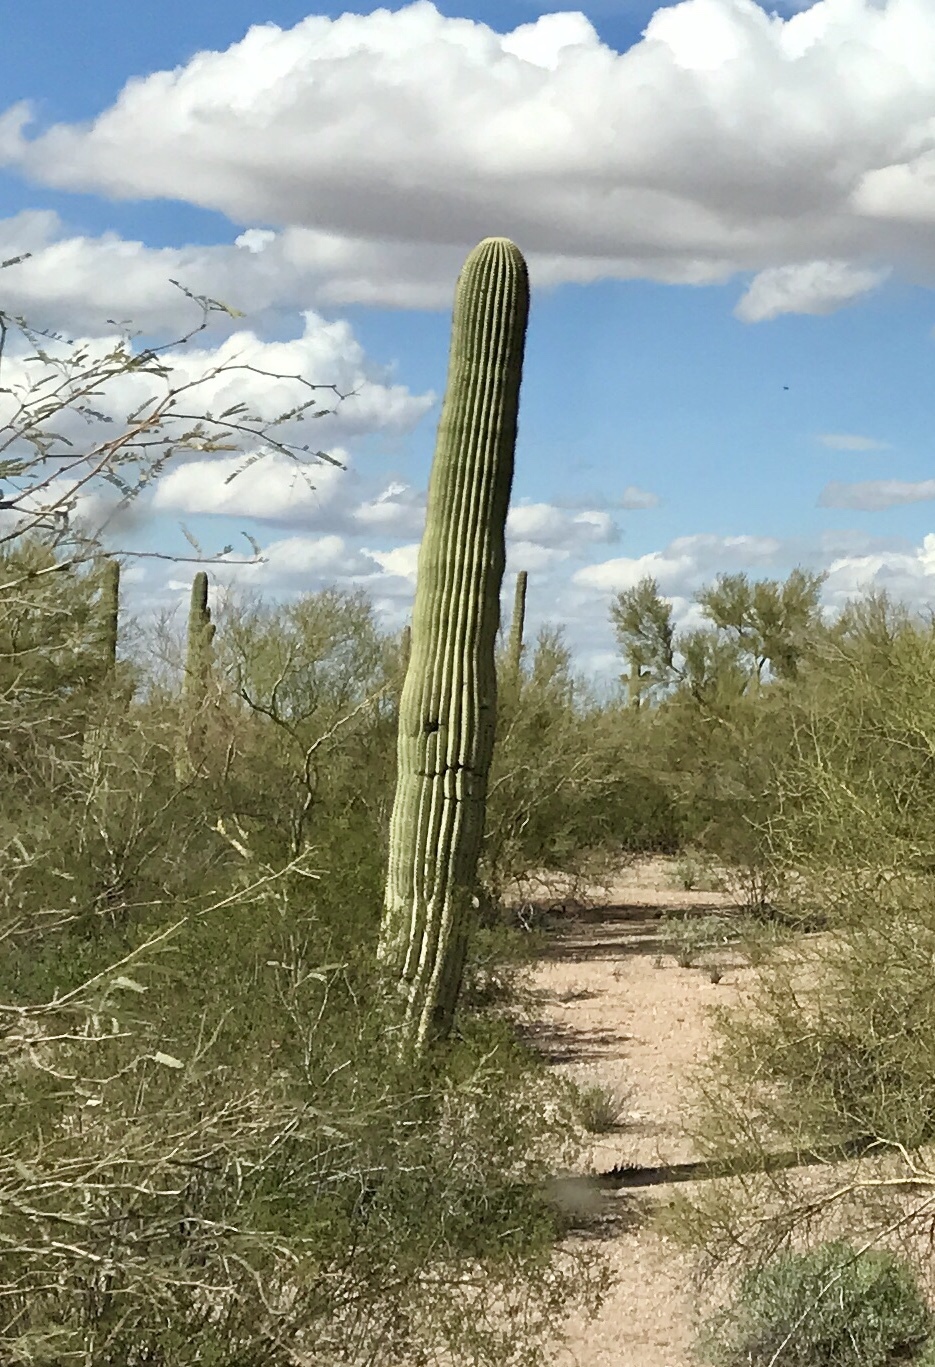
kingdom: Plantae
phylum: Tracheophyta
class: Magnoliopsida
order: Caryophyllales
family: Cactaceae
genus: Carnegiea
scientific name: Carnegiea gigantea
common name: Saguaro
